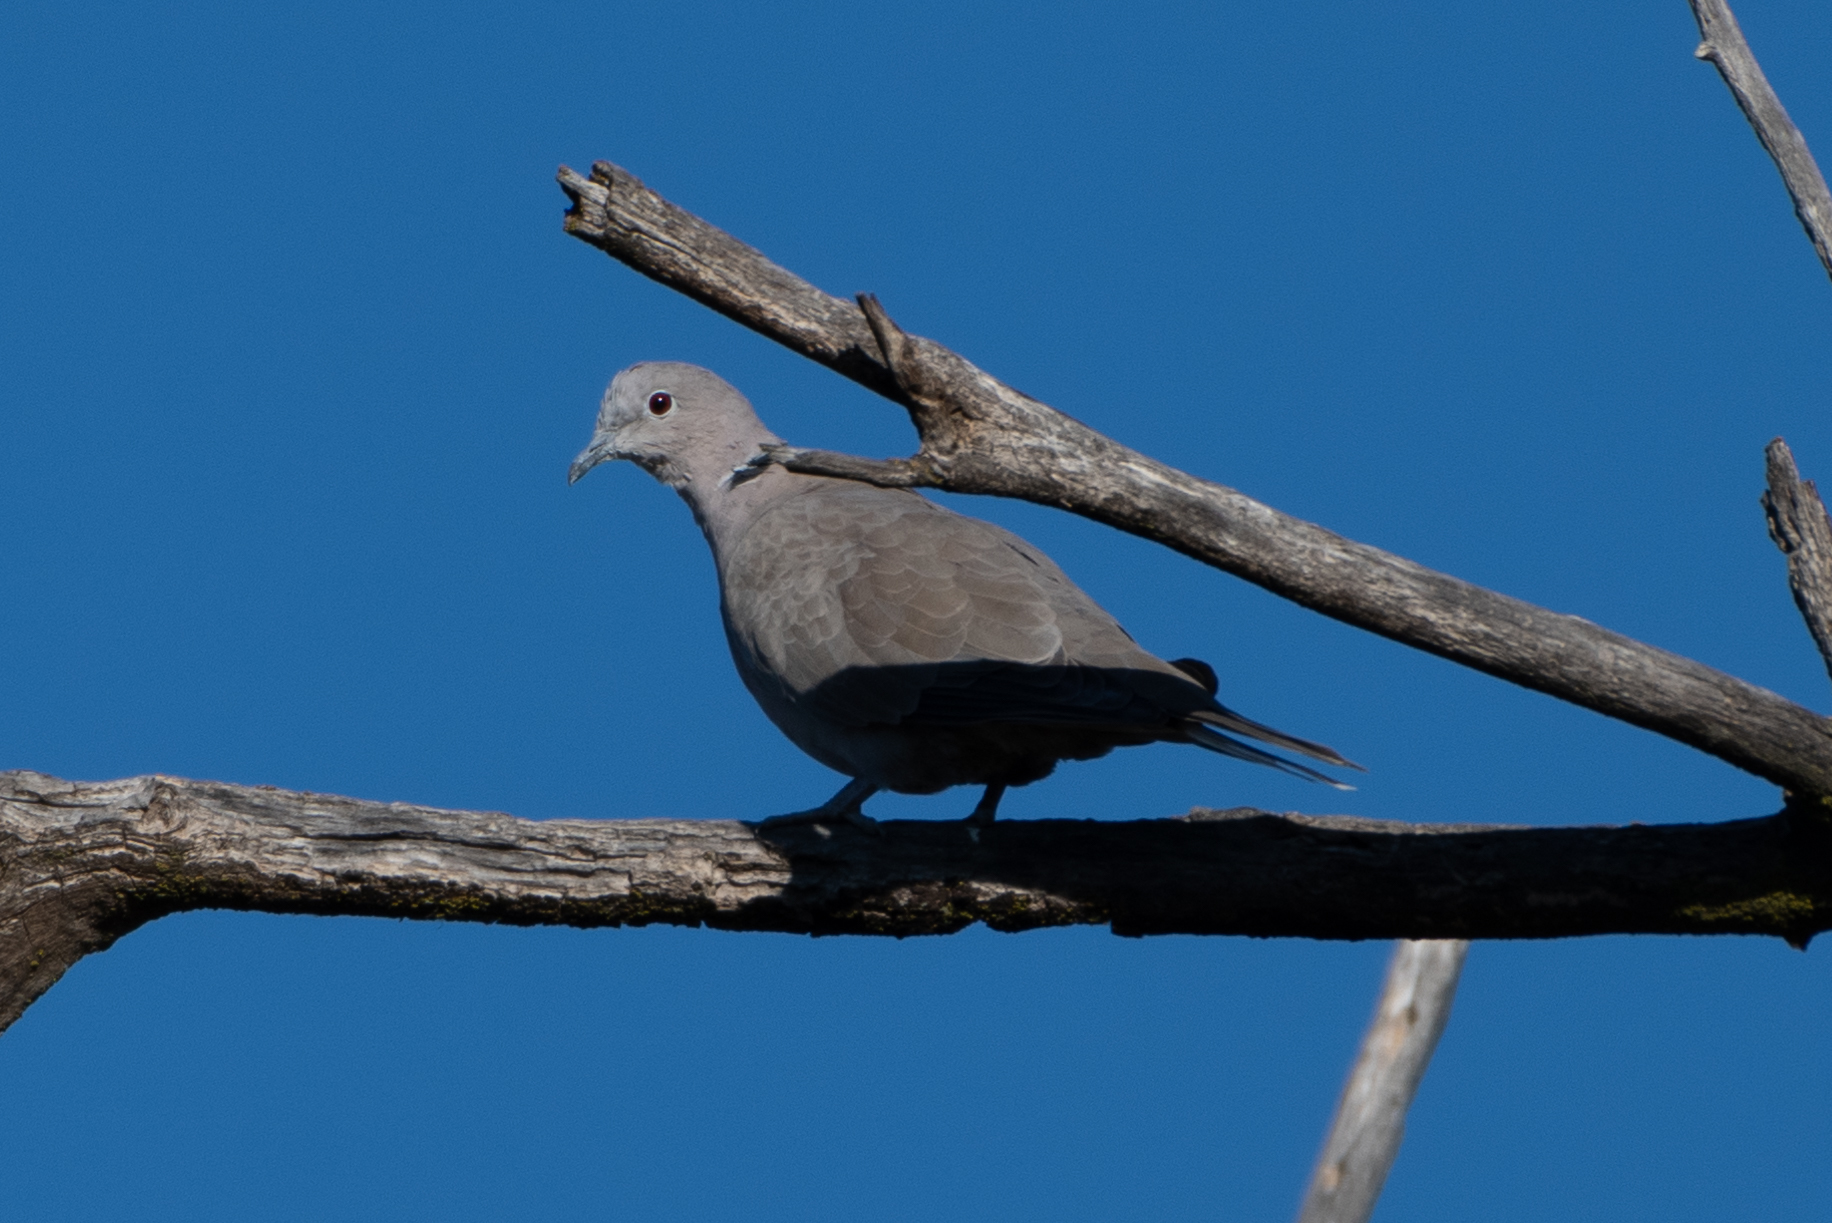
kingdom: Animalia
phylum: Chordata
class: Aves
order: Columbiformes
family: Columbidae
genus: Streptopelia
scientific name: Streptopelia decaocto
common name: Eurasian collared dove
